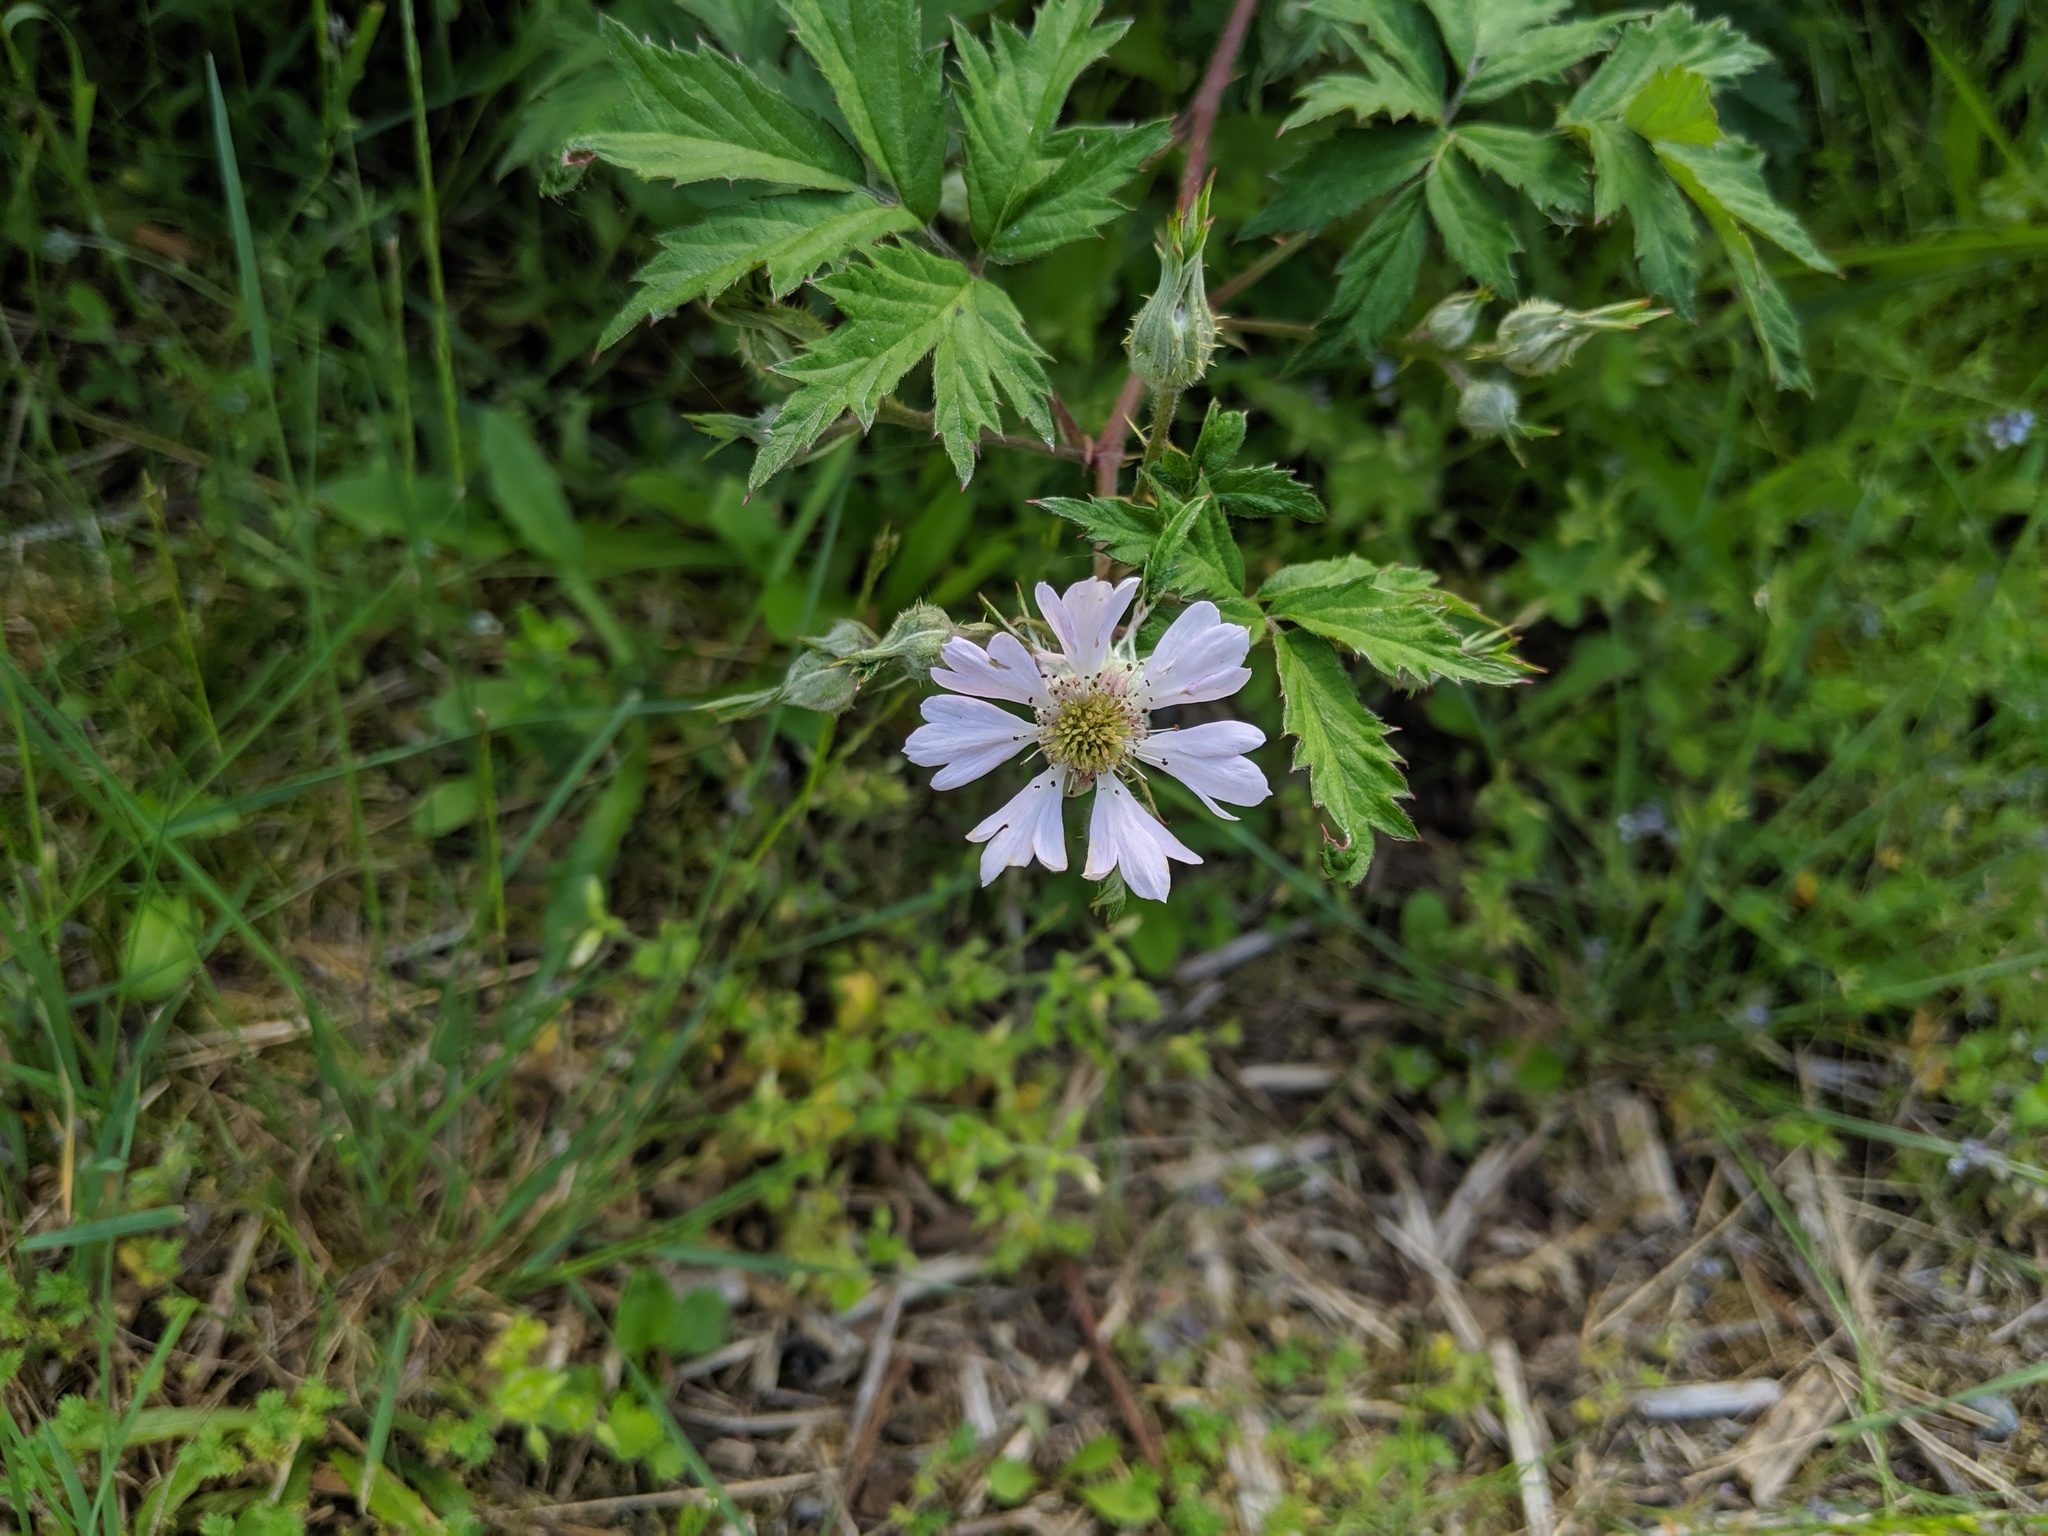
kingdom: Plantae
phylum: Tracheophyta
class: Magnoliopsida
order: Rosales
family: Rosaceae
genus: Rubus
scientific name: Rubus laciniatus
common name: Evergreen blackberry
